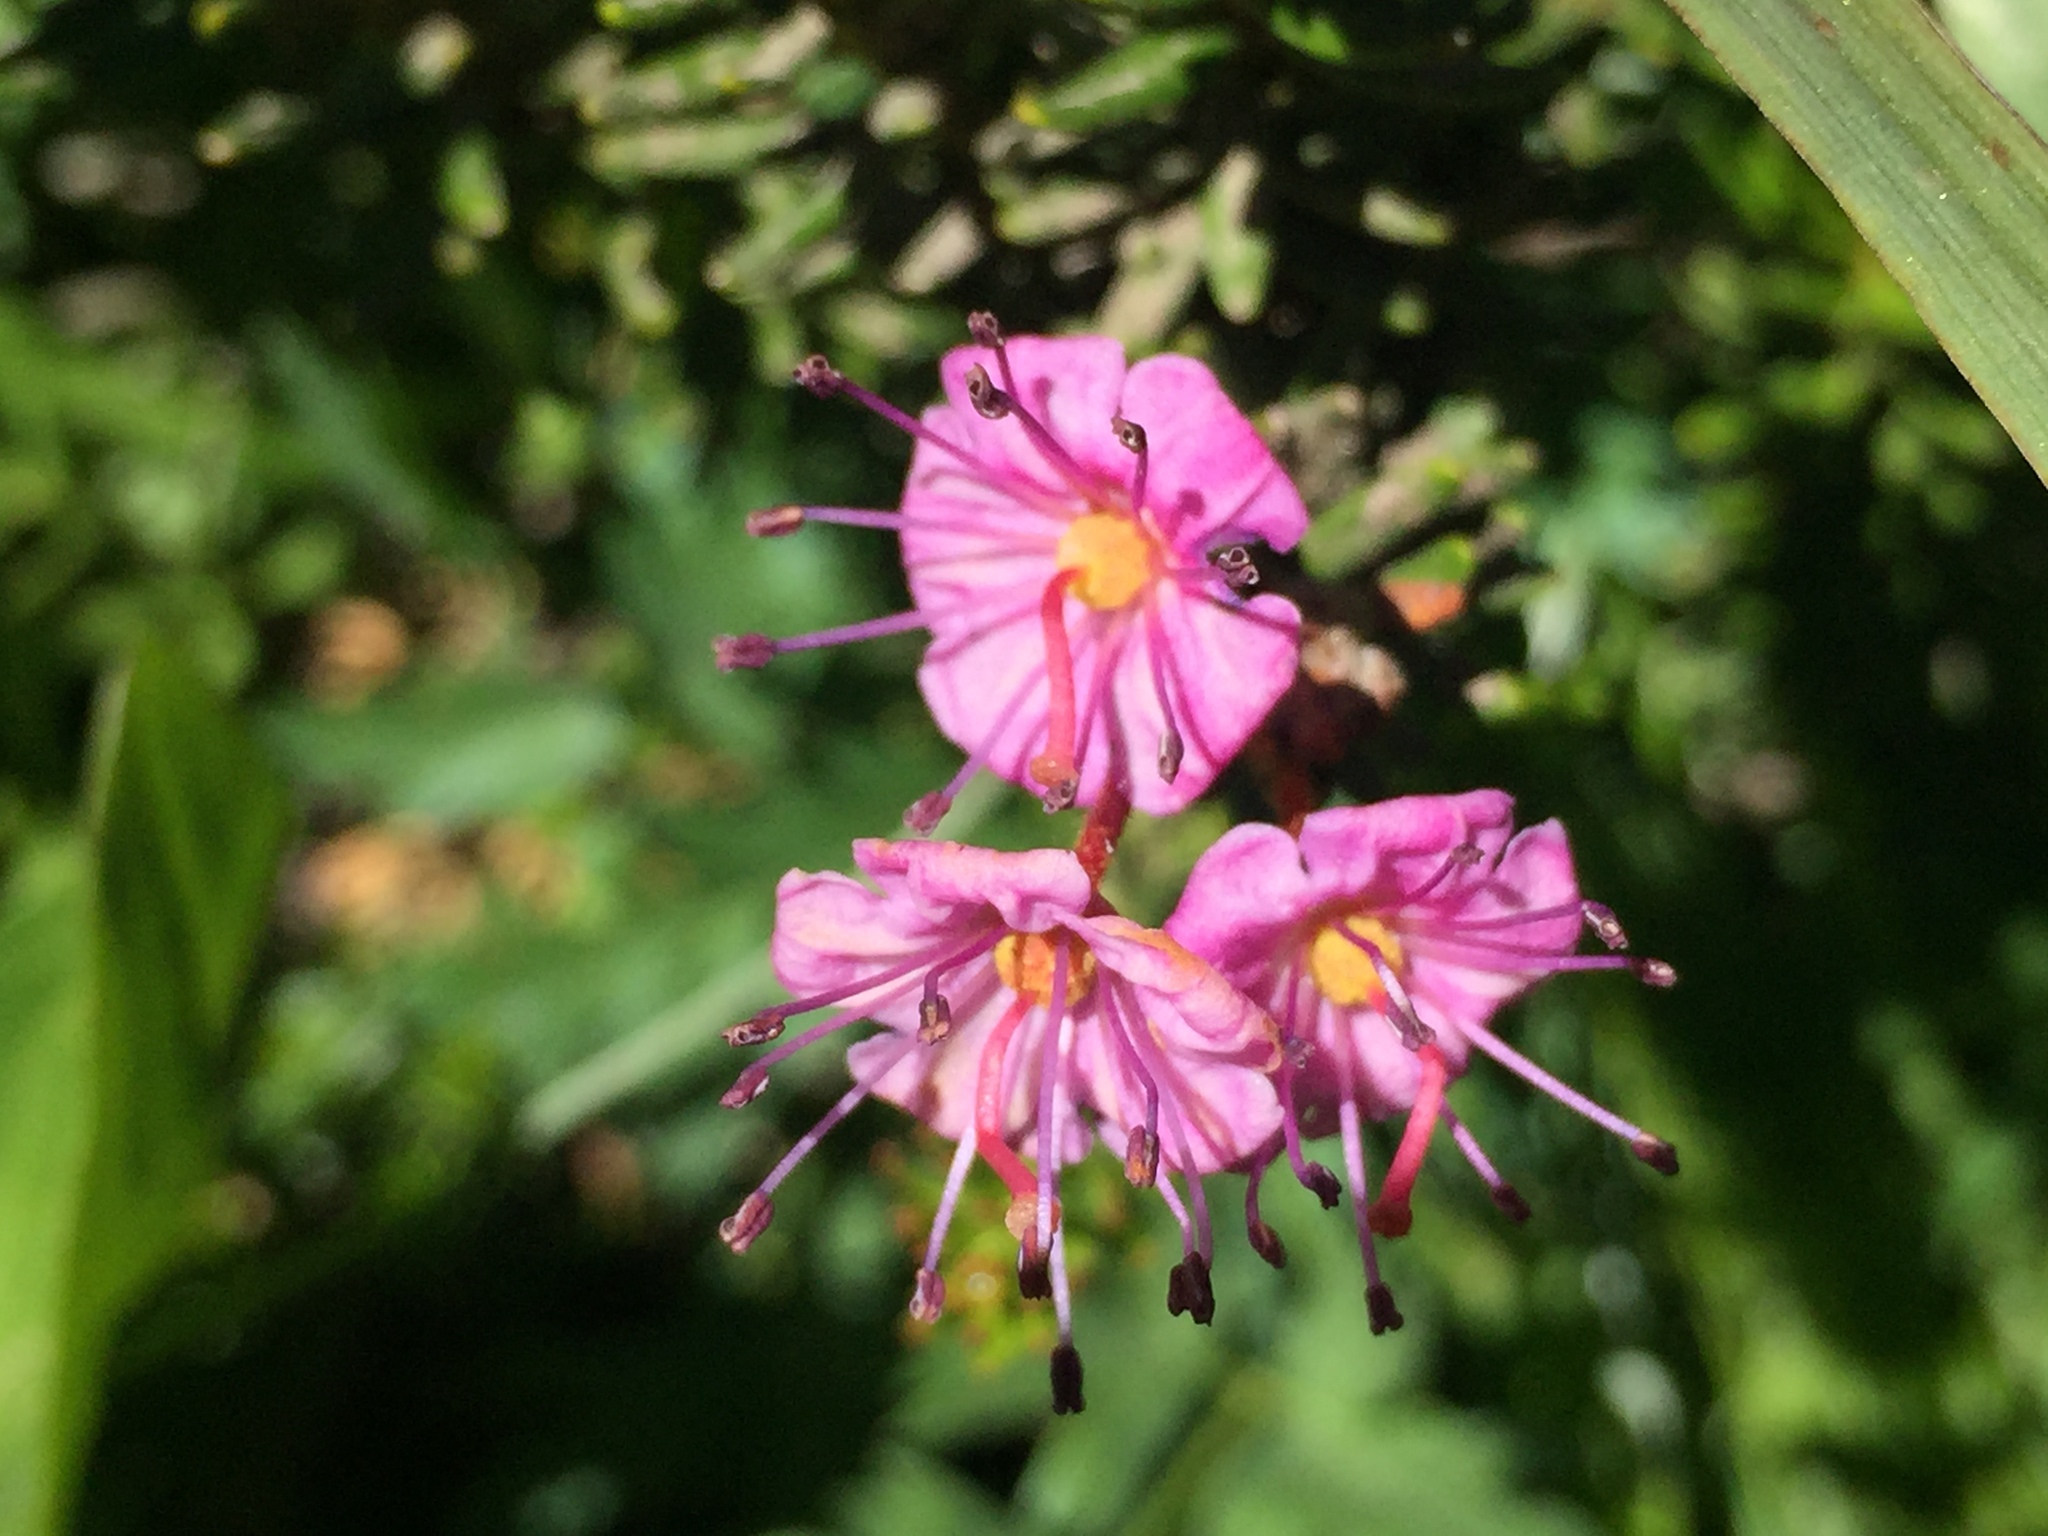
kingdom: Plantae
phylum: Tracheophyta
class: Magnoliopsida
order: Ericales
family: Ericaceae
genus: Phyllodoce
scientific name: Phyllodoce breweri
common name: Brewer's mountain-heather
